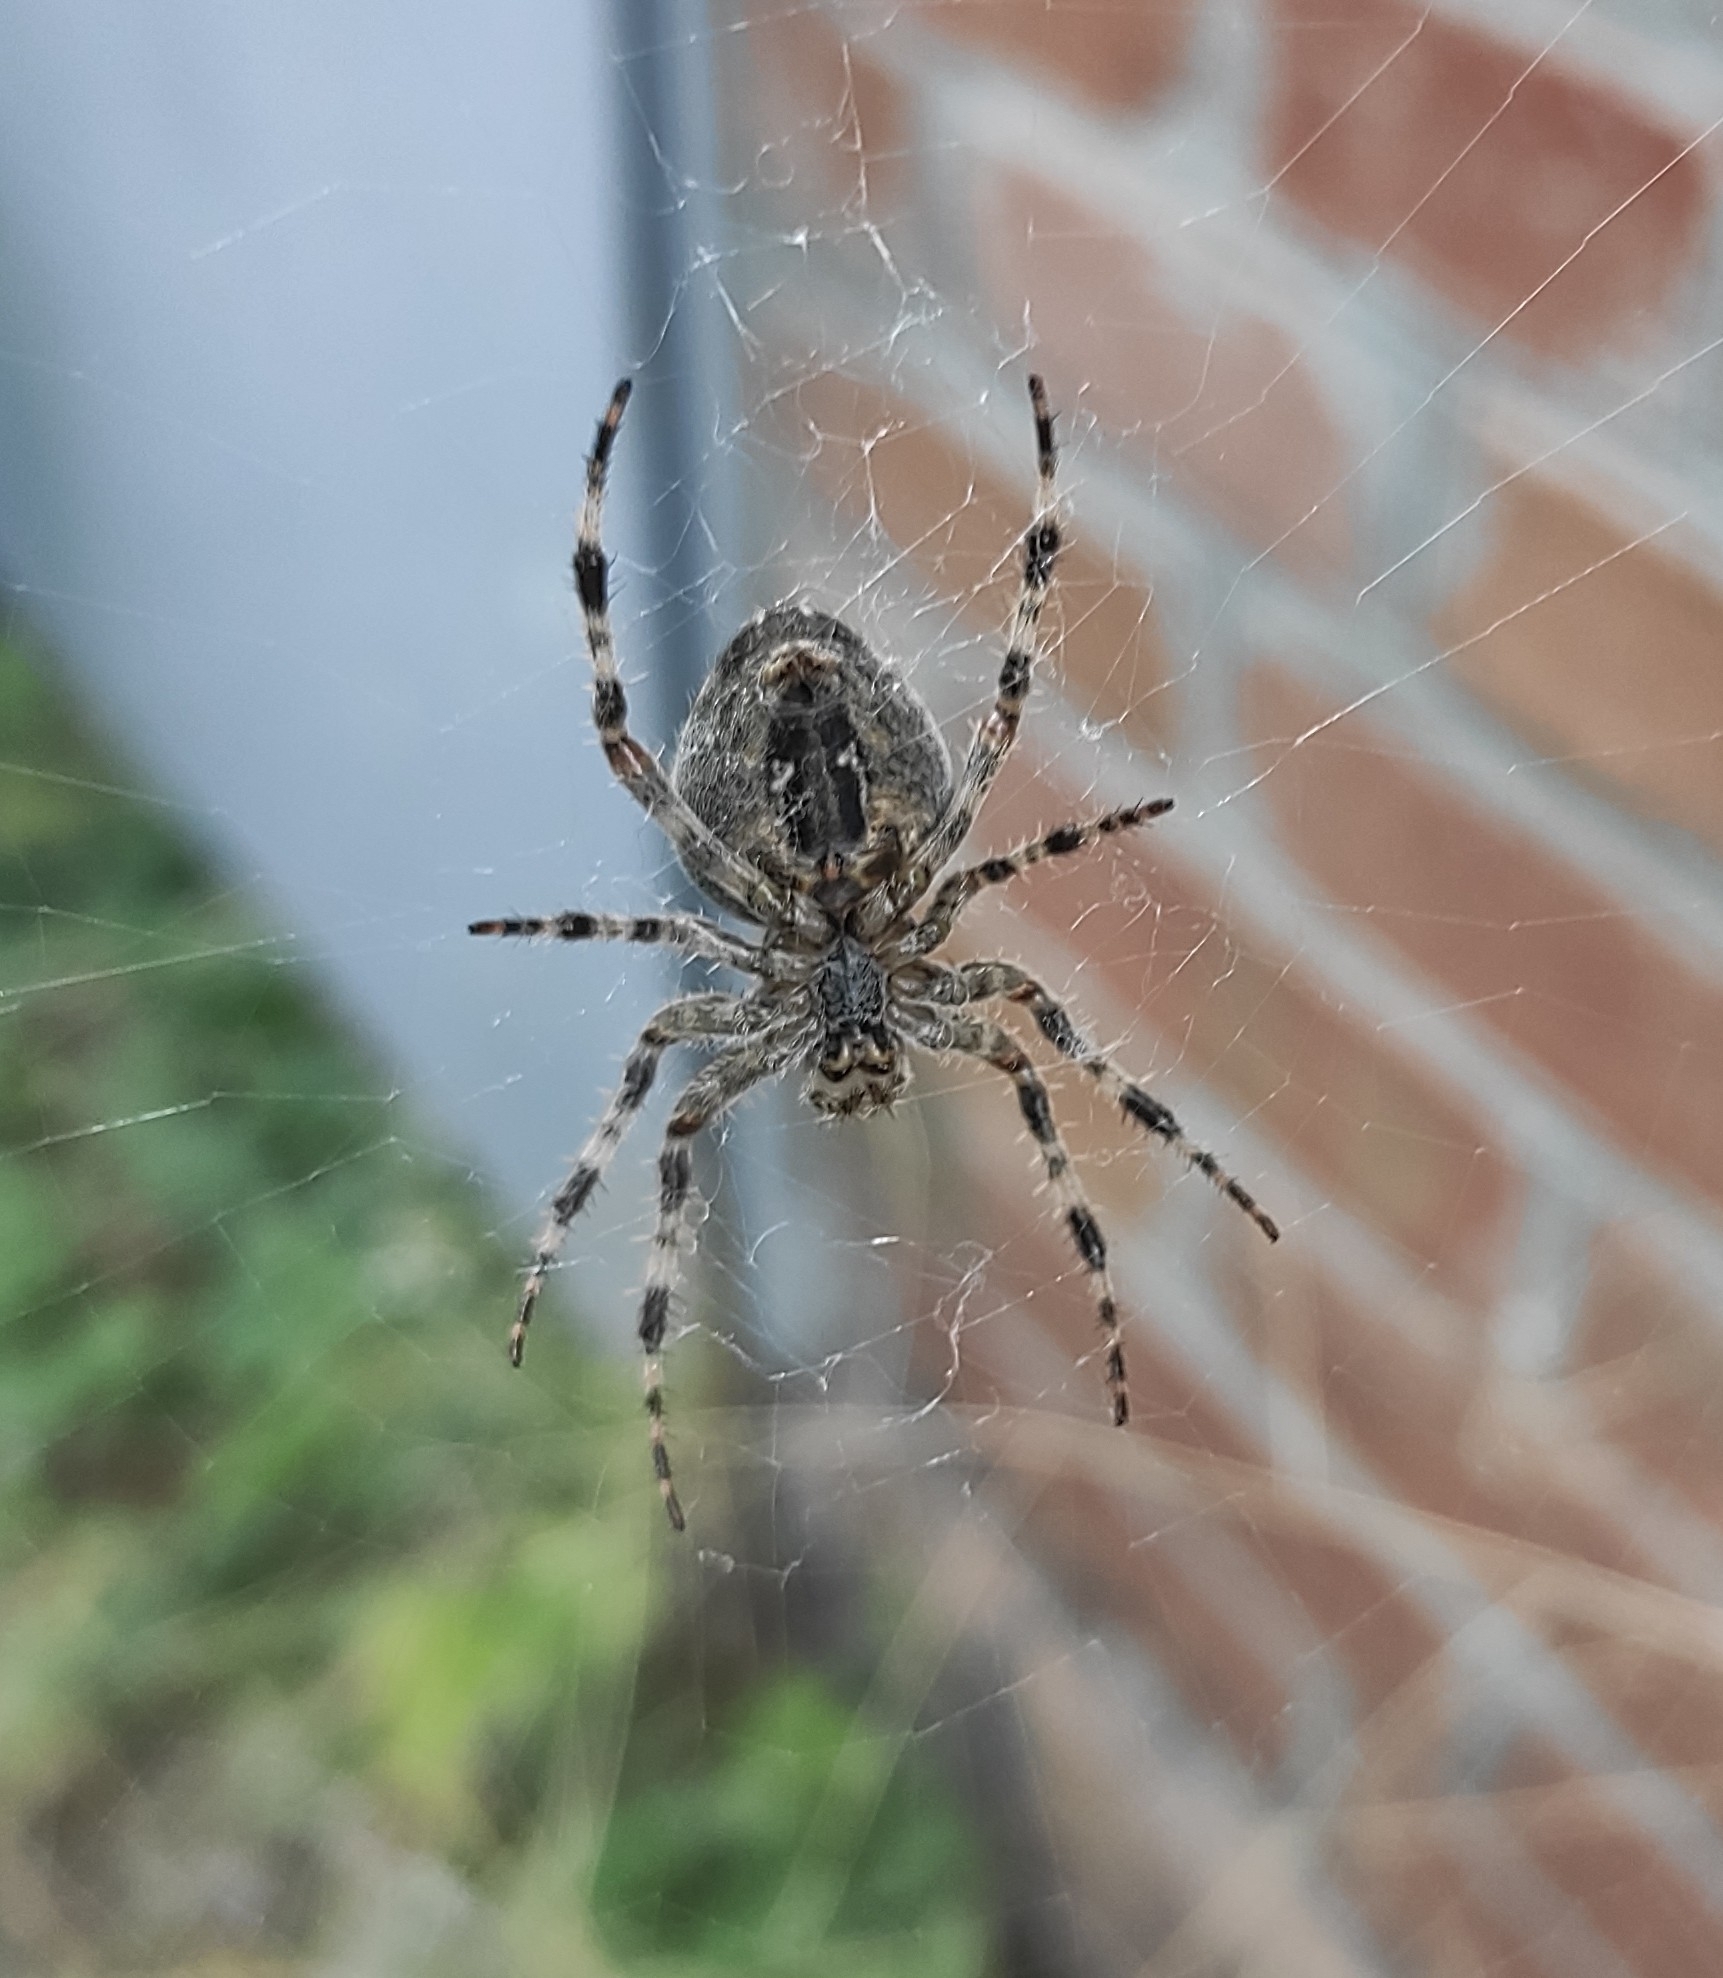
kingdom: Animalia
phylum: Arthropoda
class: Arachnida
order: Araneae
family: Araneidae
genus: Araneus
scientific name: Araneus diadematus
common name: Cross orbweaver
